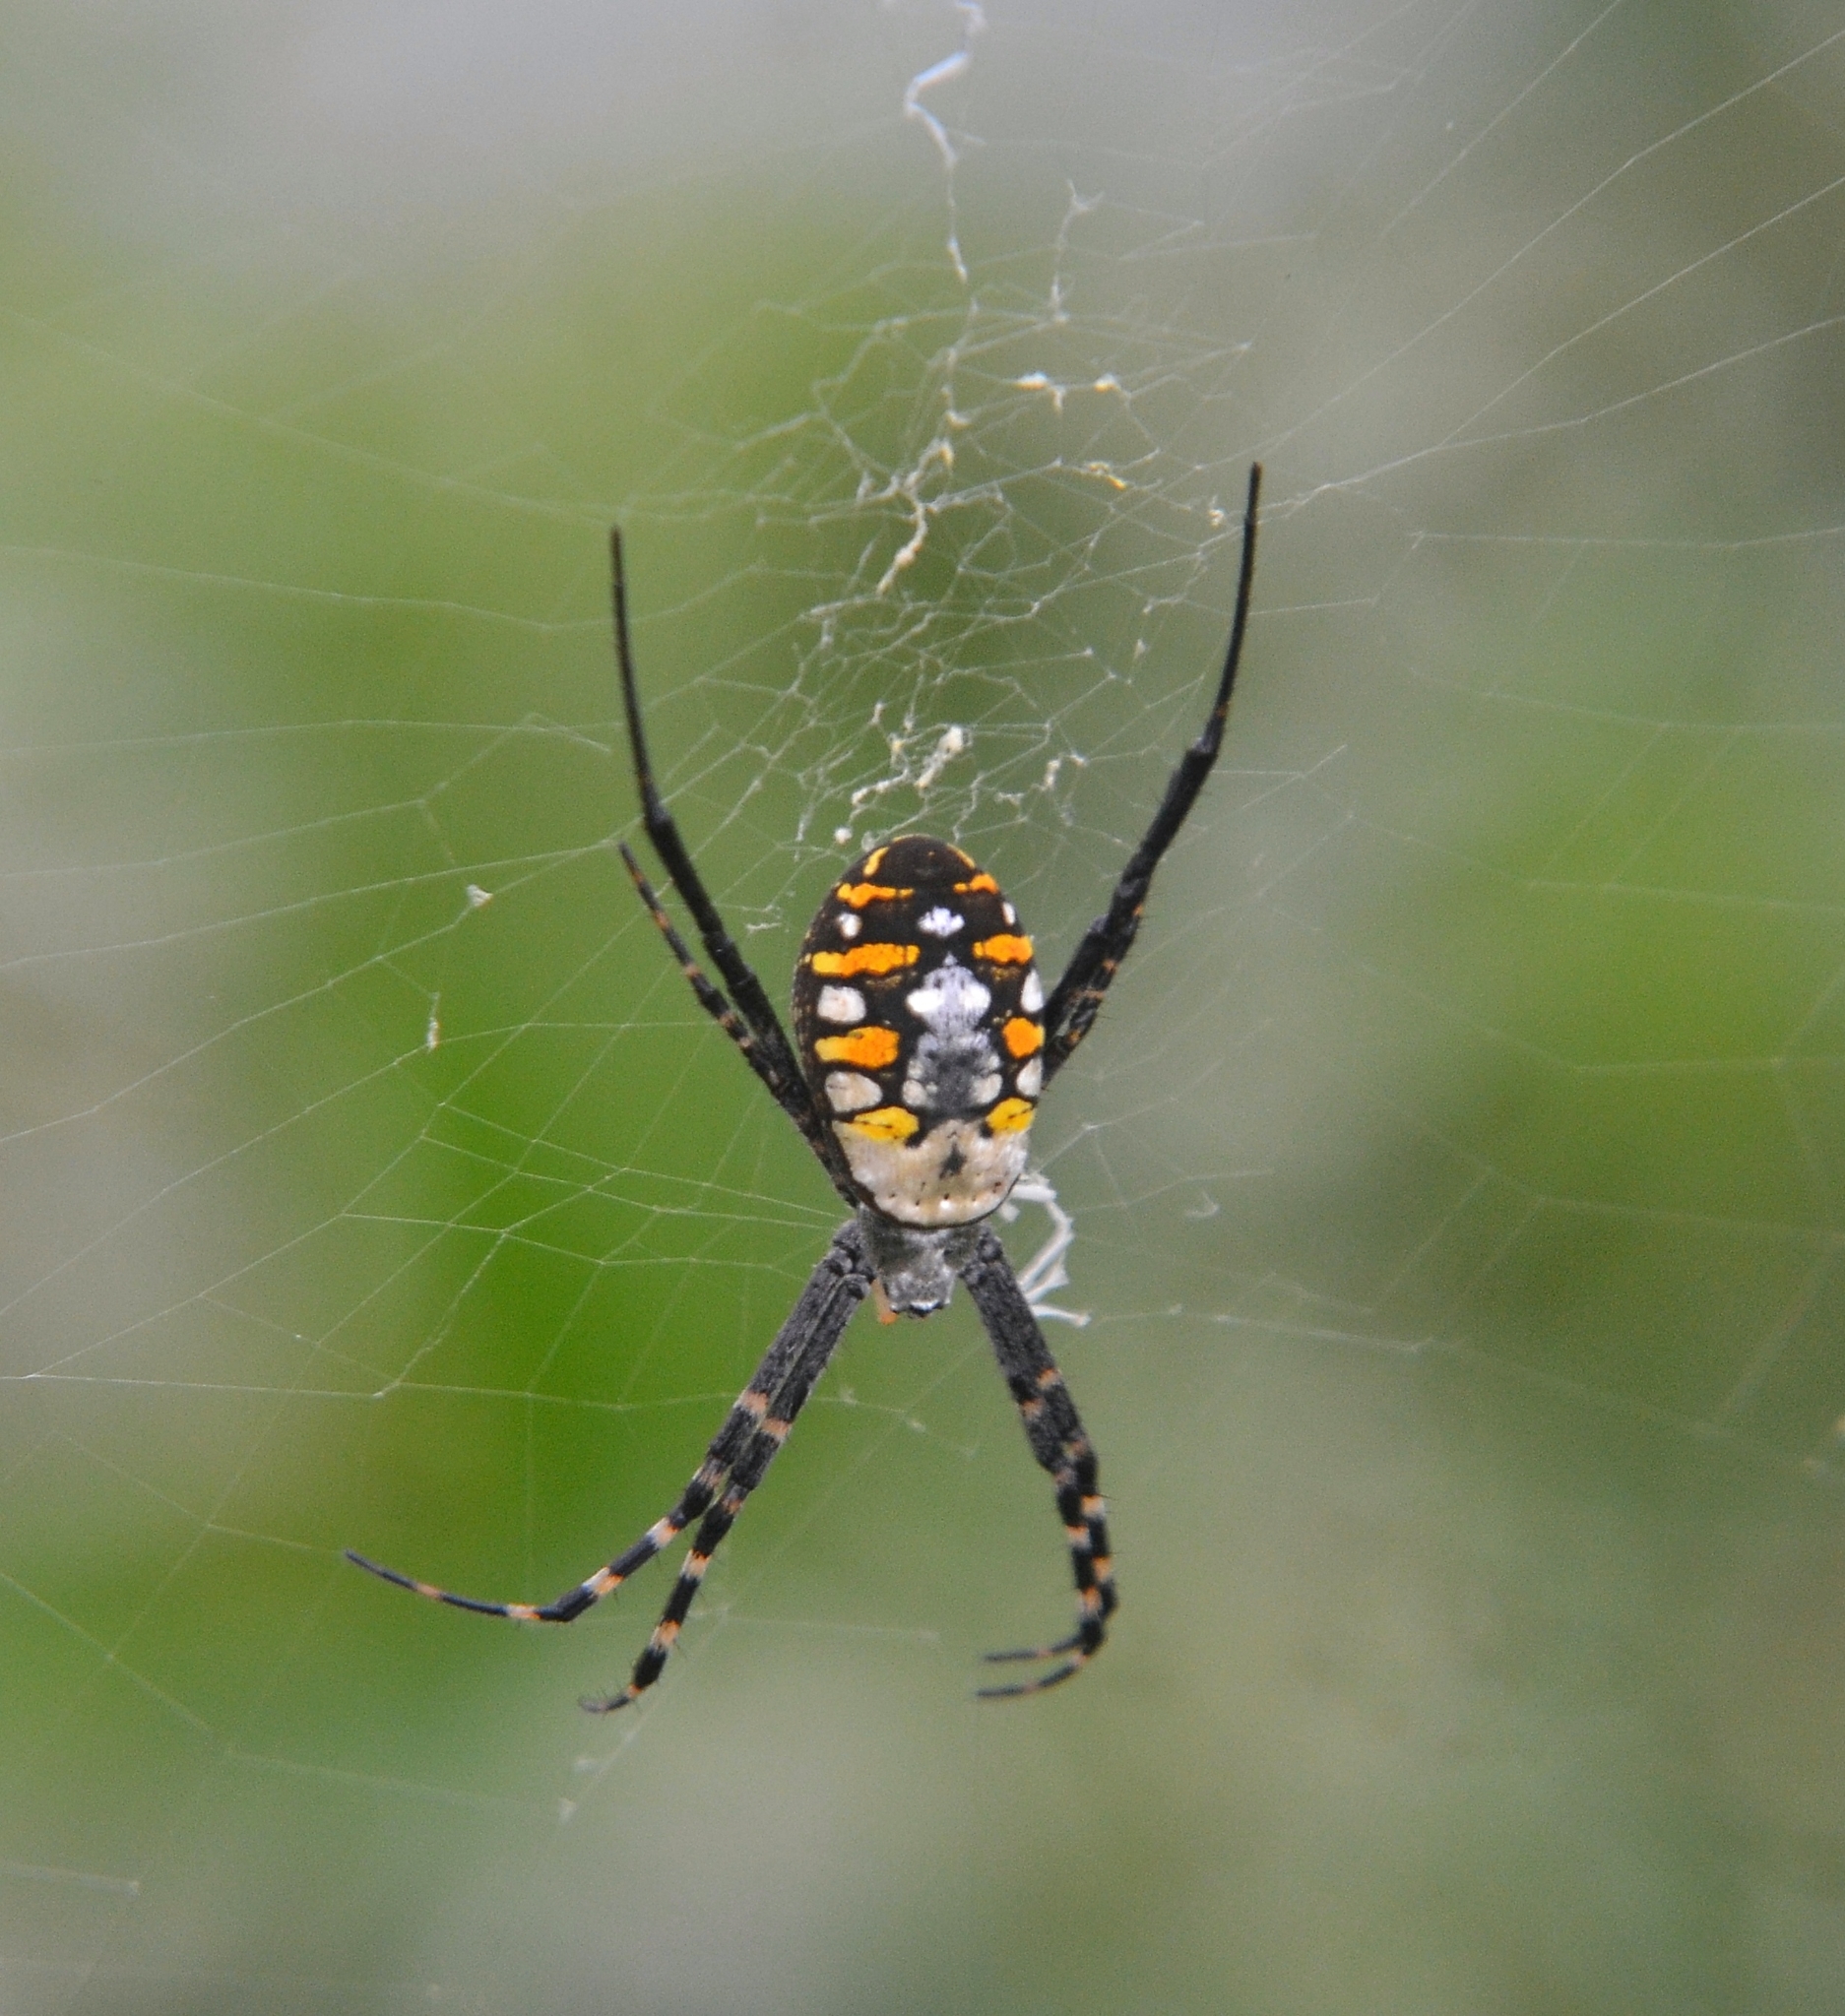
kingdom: Animalia
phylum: Arthropoda
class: Arachnida
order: Araneae
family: Araneidae
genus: Argiope
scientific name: Argiope catenulata
